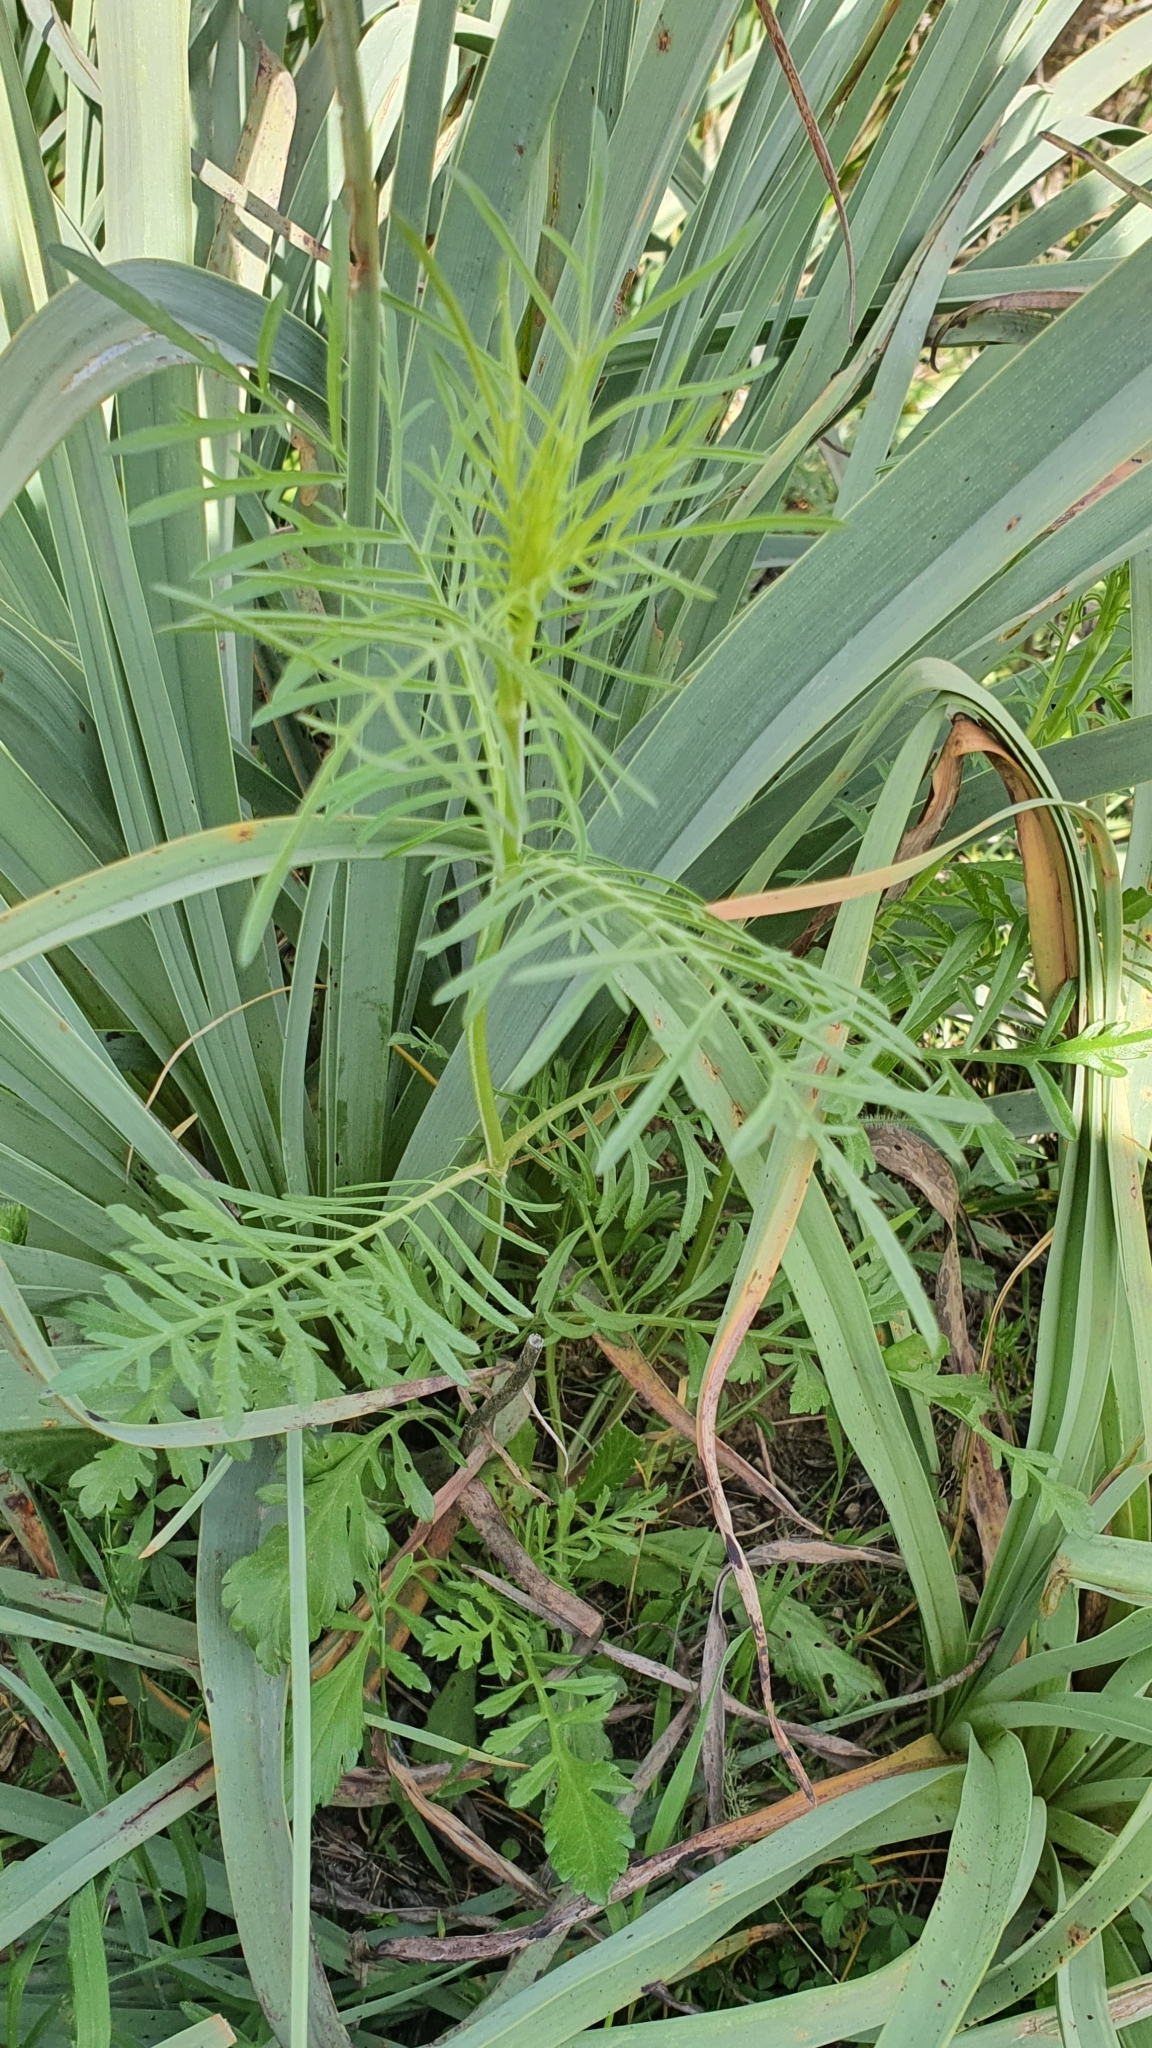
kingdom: Plantae
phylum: Tracheophyta
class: Magnoliopsida
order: Dipsacales
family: Caprifoliaceae
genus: Sixalix
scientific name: Sixalix maritima
